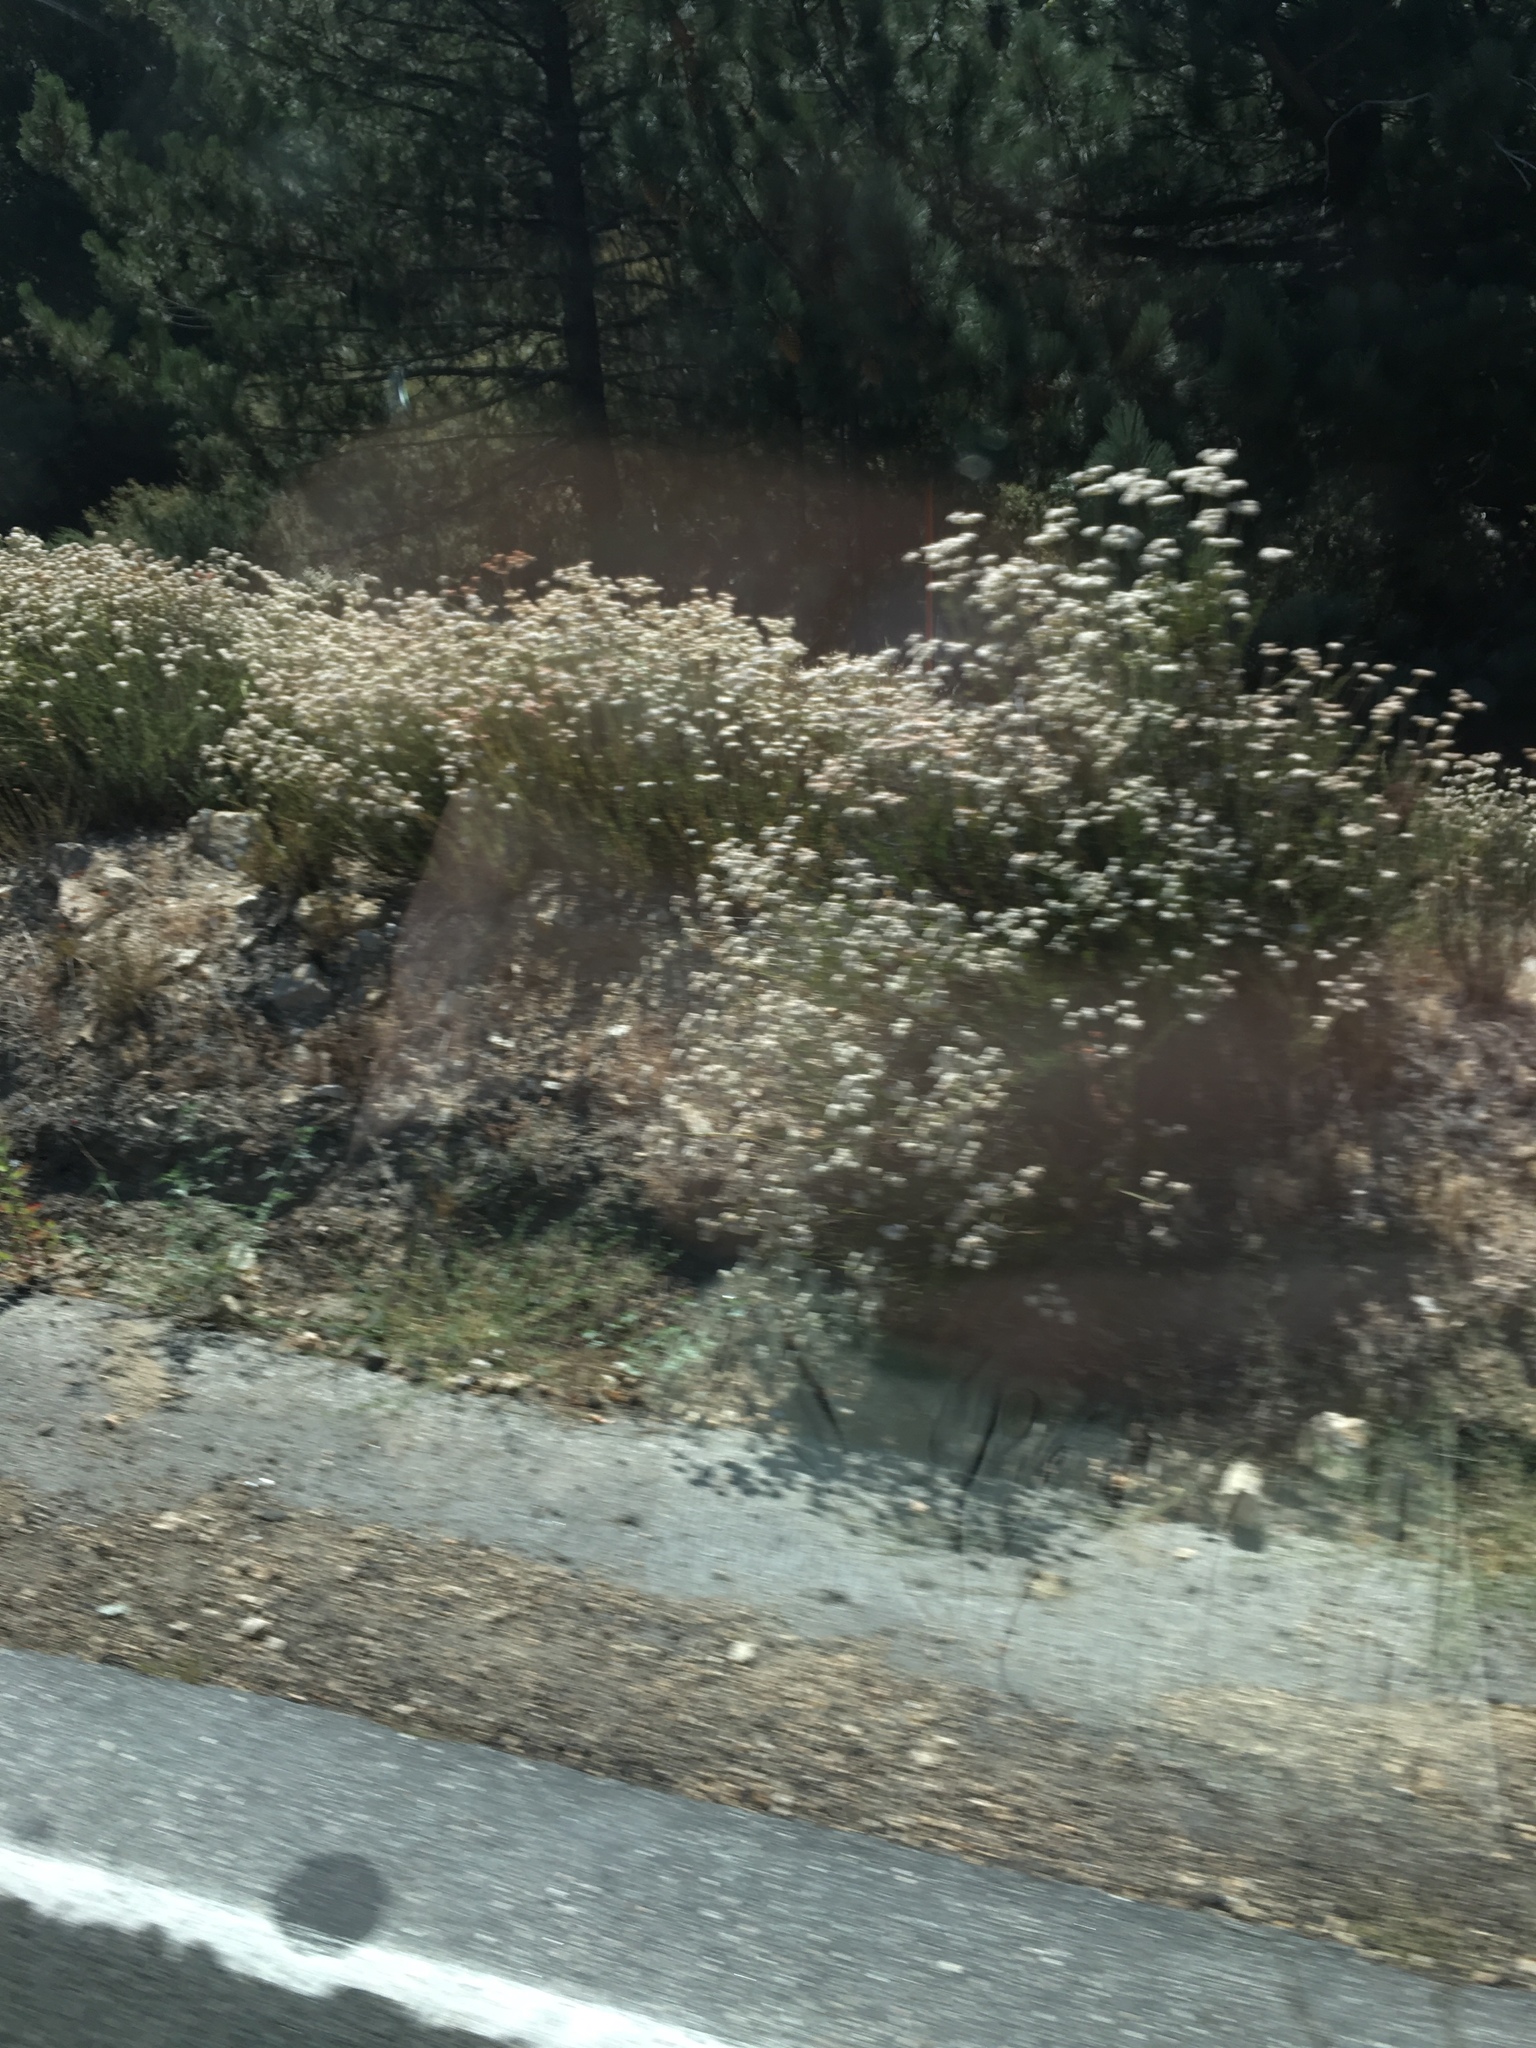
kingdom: Plantae
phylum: Tracheophyta
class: Magnoliopsida
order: Caryophyllales
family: Polygonaceae
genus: Eriogonum
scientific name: Eriogonum fasciculatum
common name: California wild buckwheat
